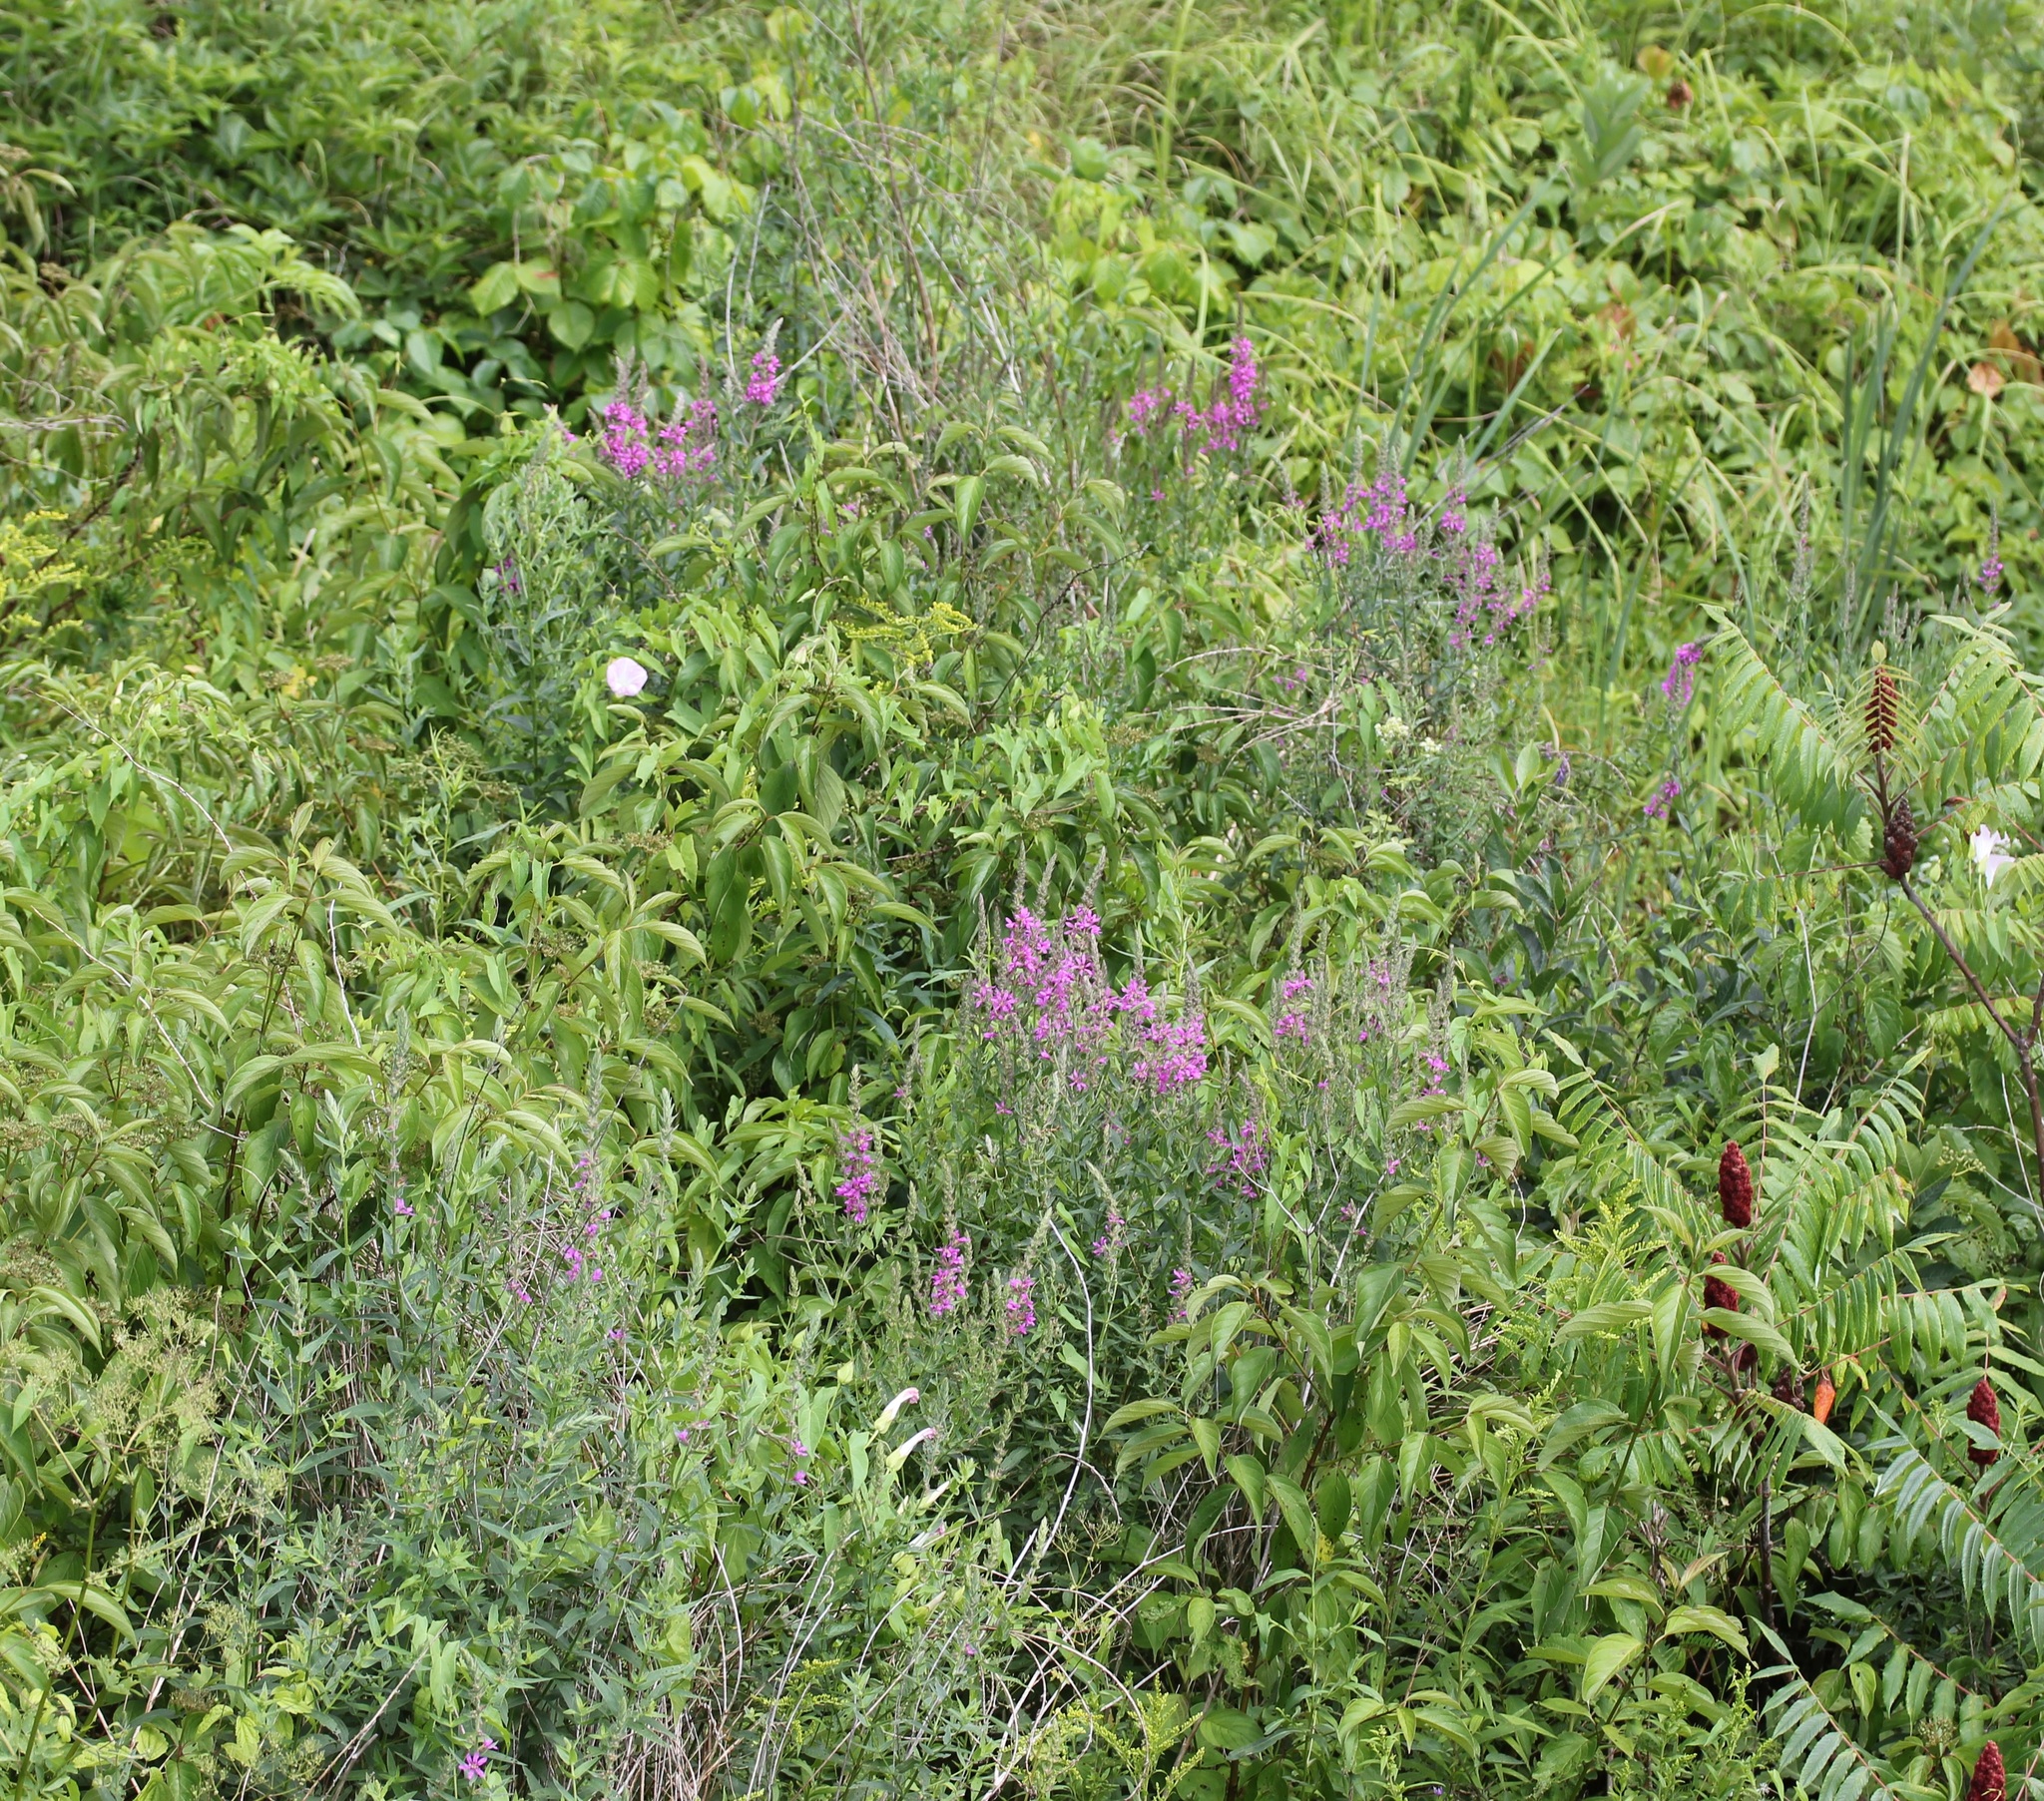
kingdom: Plantae
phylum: Tracheophyta
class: Magnoliopsida
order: Myrtales
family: Lythraceae
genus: Lythrum
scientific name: Lythrum salicaria
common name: Purple loosestrife
